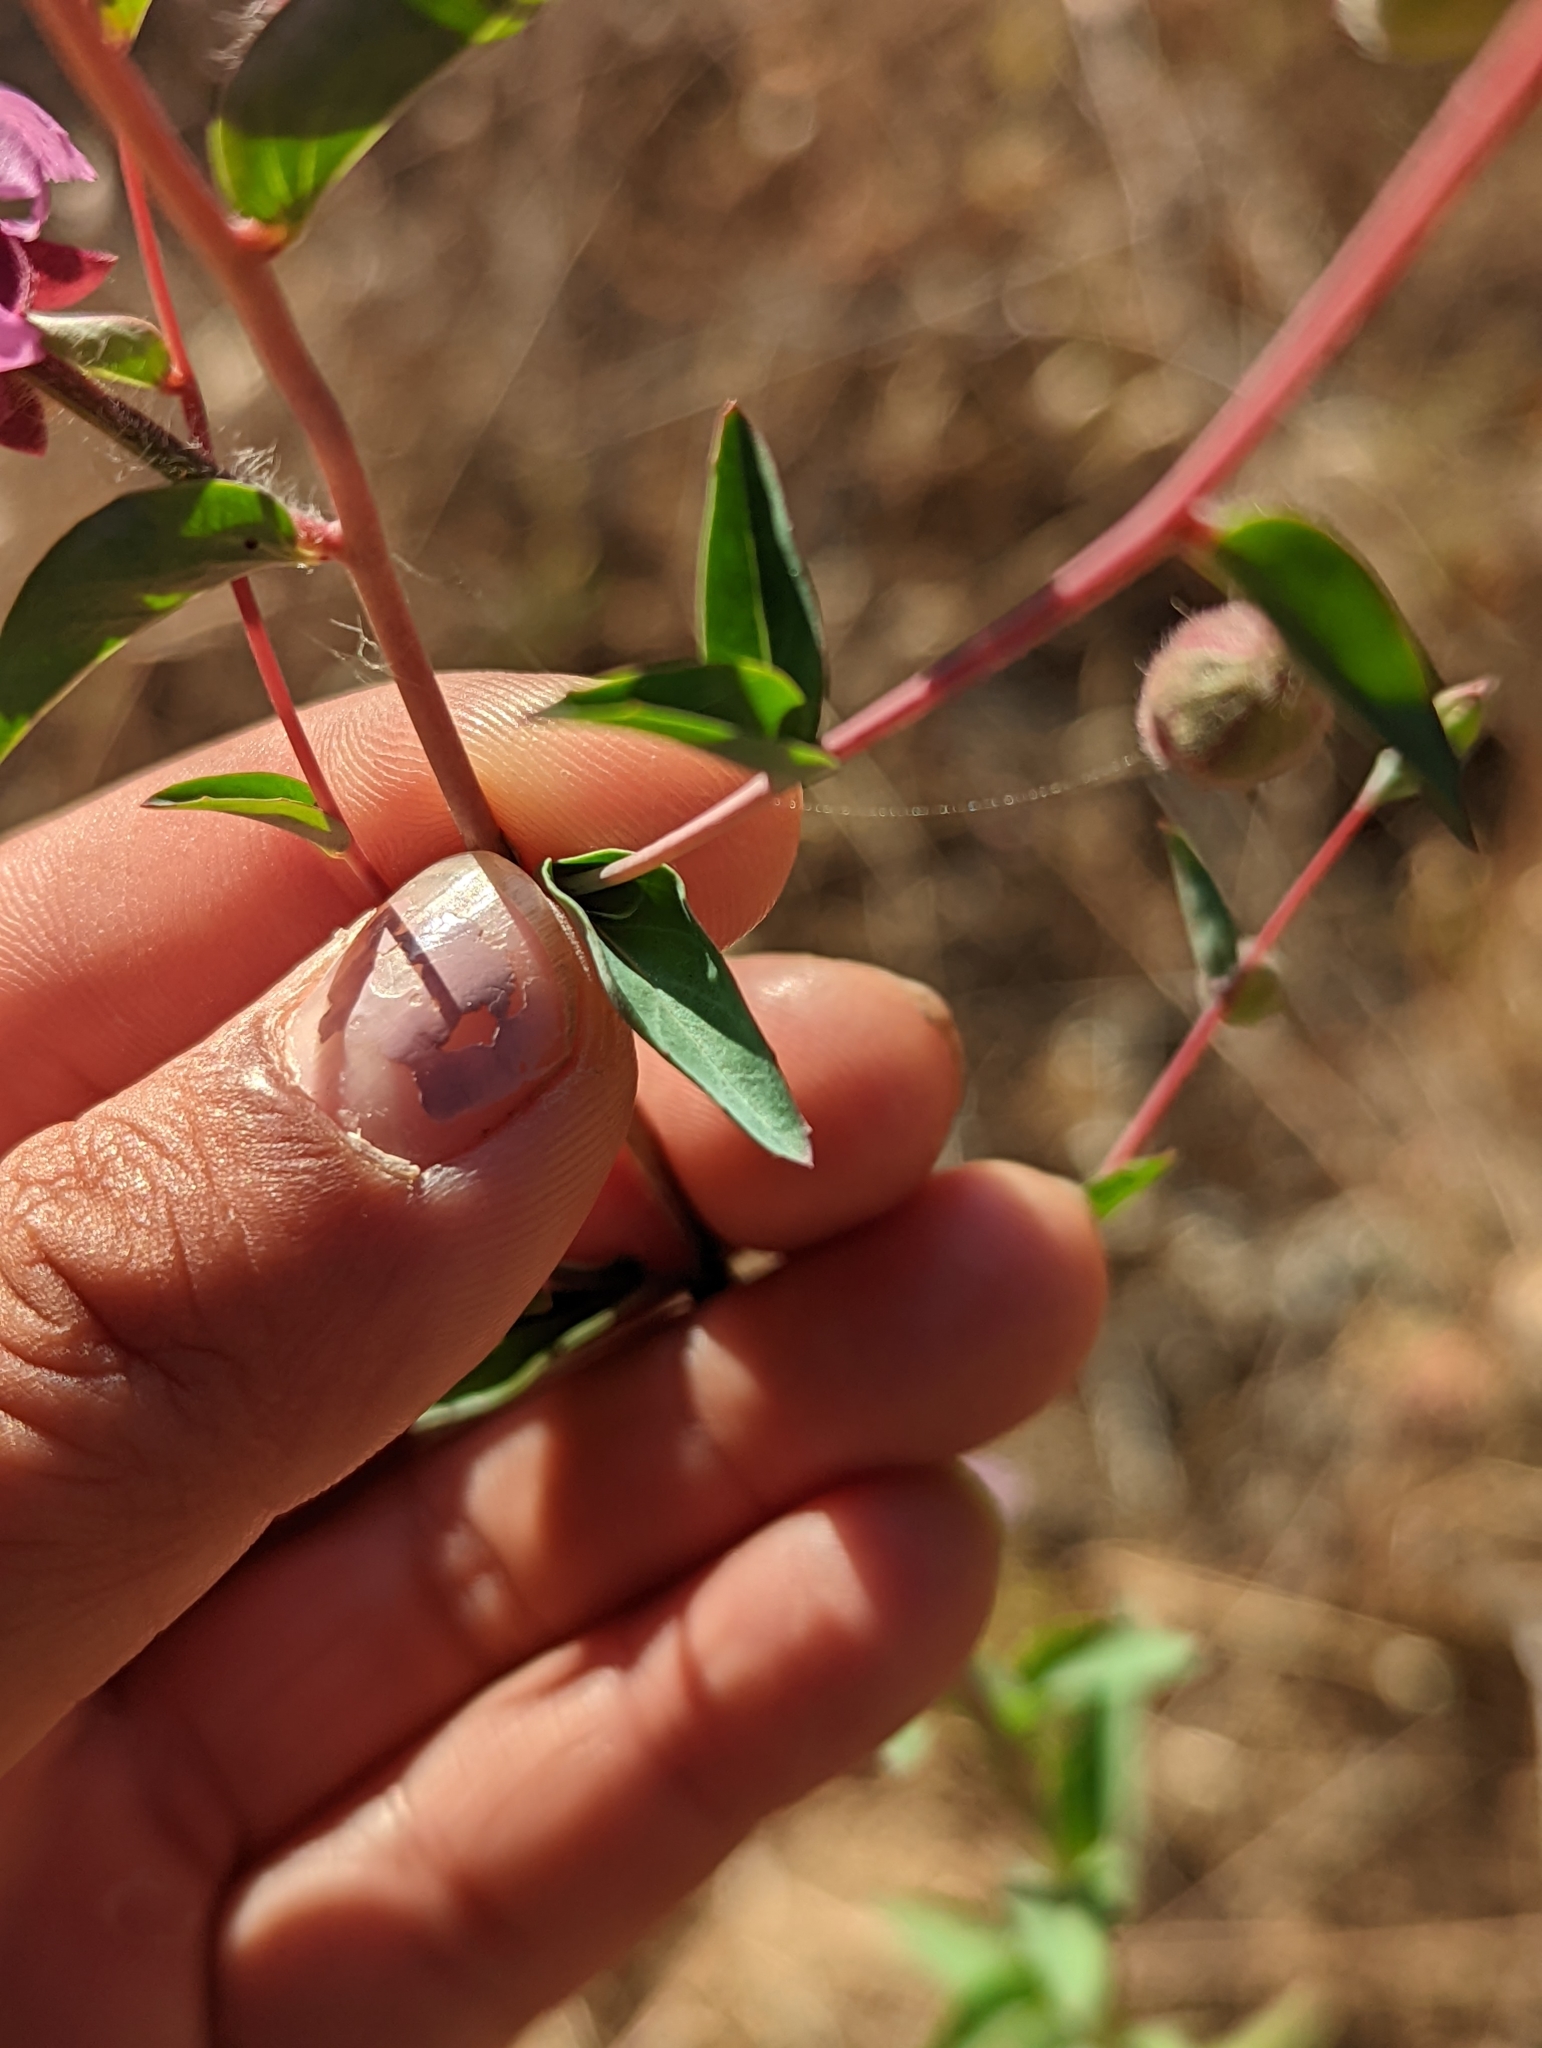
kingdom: Plantae
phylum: Tracheophyta
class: Magnoliopsida
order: Myrtales
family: Onagraceae
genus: Clarkia
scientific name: Clarkia unguiculata
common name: Clarkia
